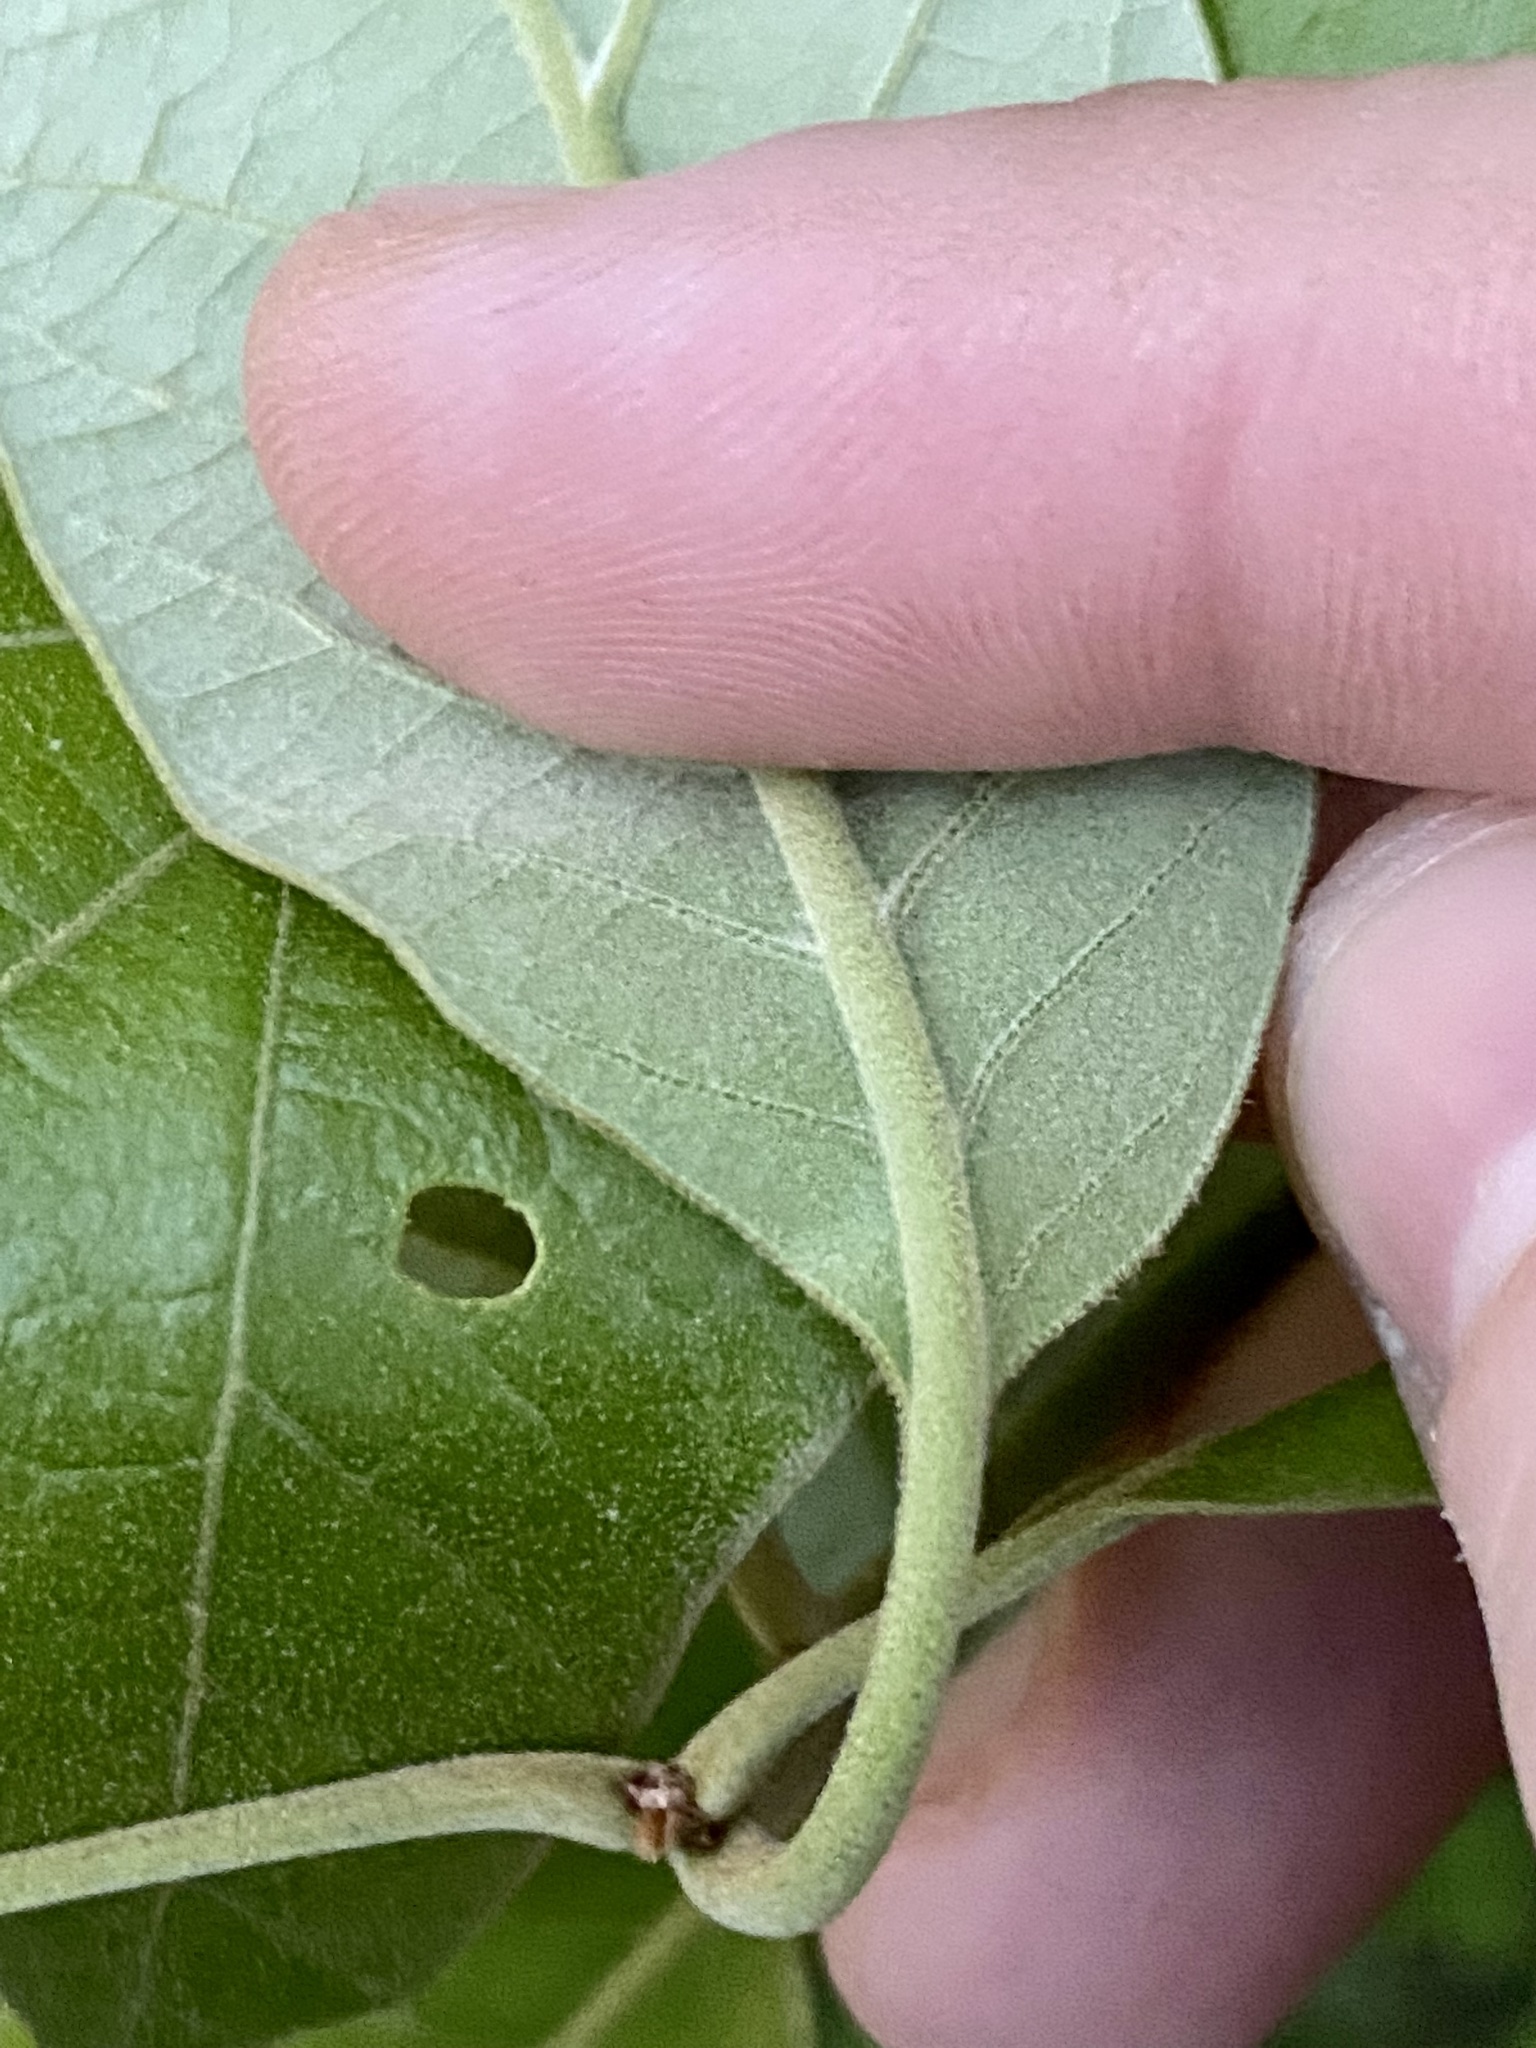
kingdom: Plantae
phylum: Tracheophyta
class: Magnoliopsida
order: Fagales
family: Fagaceae
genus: Quercus
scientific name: Quercus falcata
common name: Southern red oak
